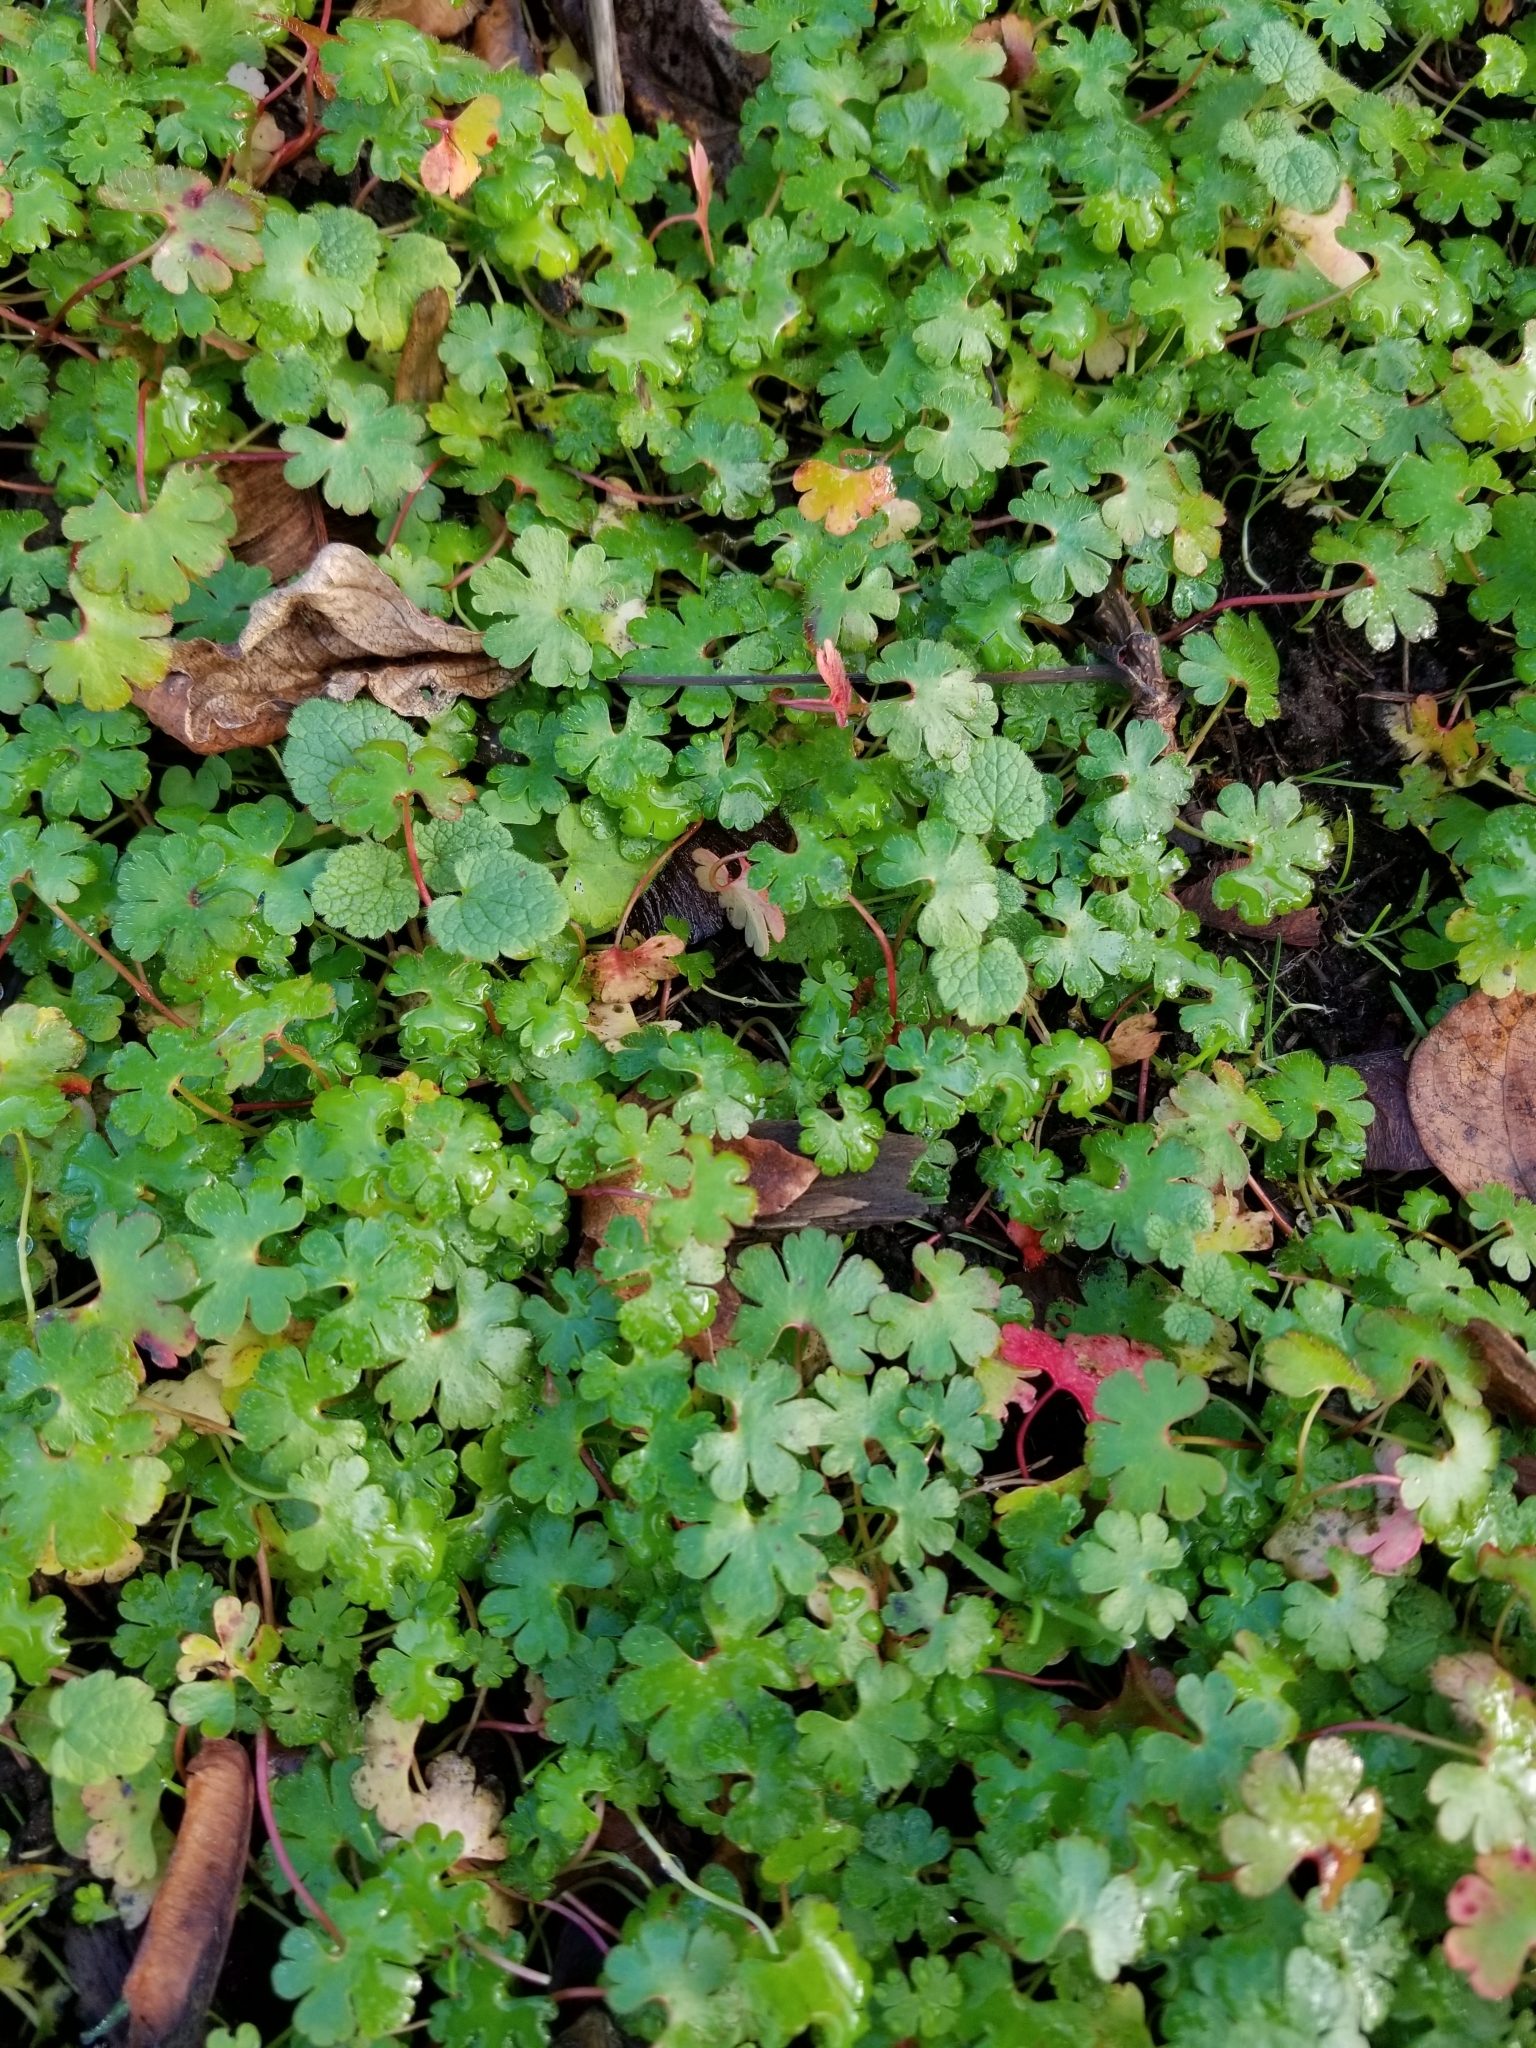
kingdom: Plantae
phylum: Tracheophyta
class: Magnoliopsida
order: Geraniales
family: Geraniaceae
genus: Geranium
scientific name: Geranium lucidum
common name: Shining crane's-bill
